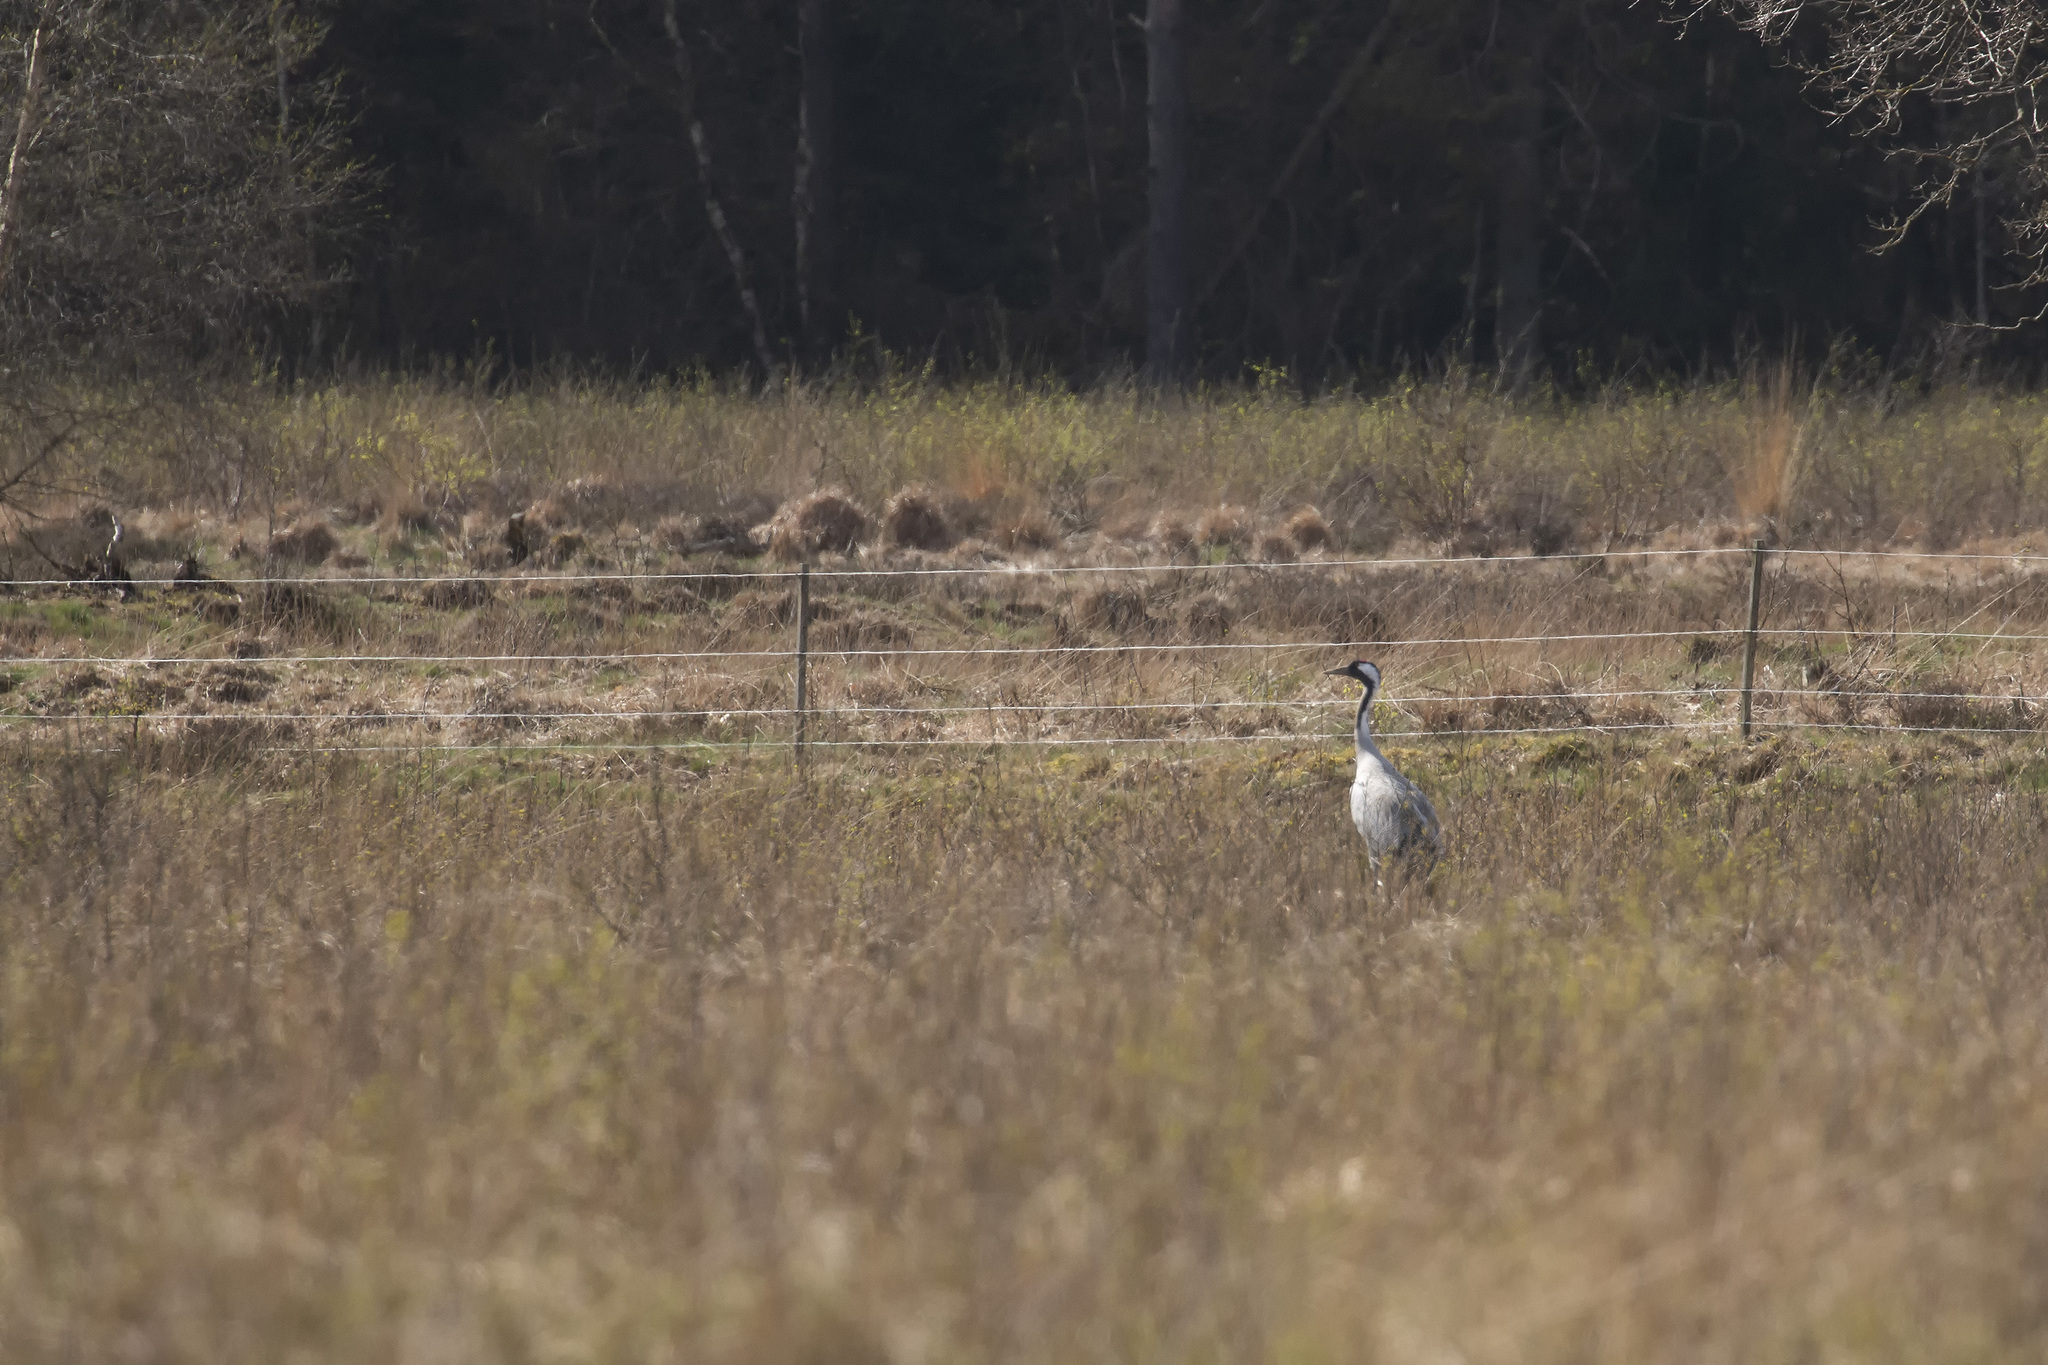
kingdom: Animalia
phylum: Chordata
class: Aves
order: Gruiformes
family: Gruidae
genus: Grus
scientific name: Grus grus
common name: Common crane
